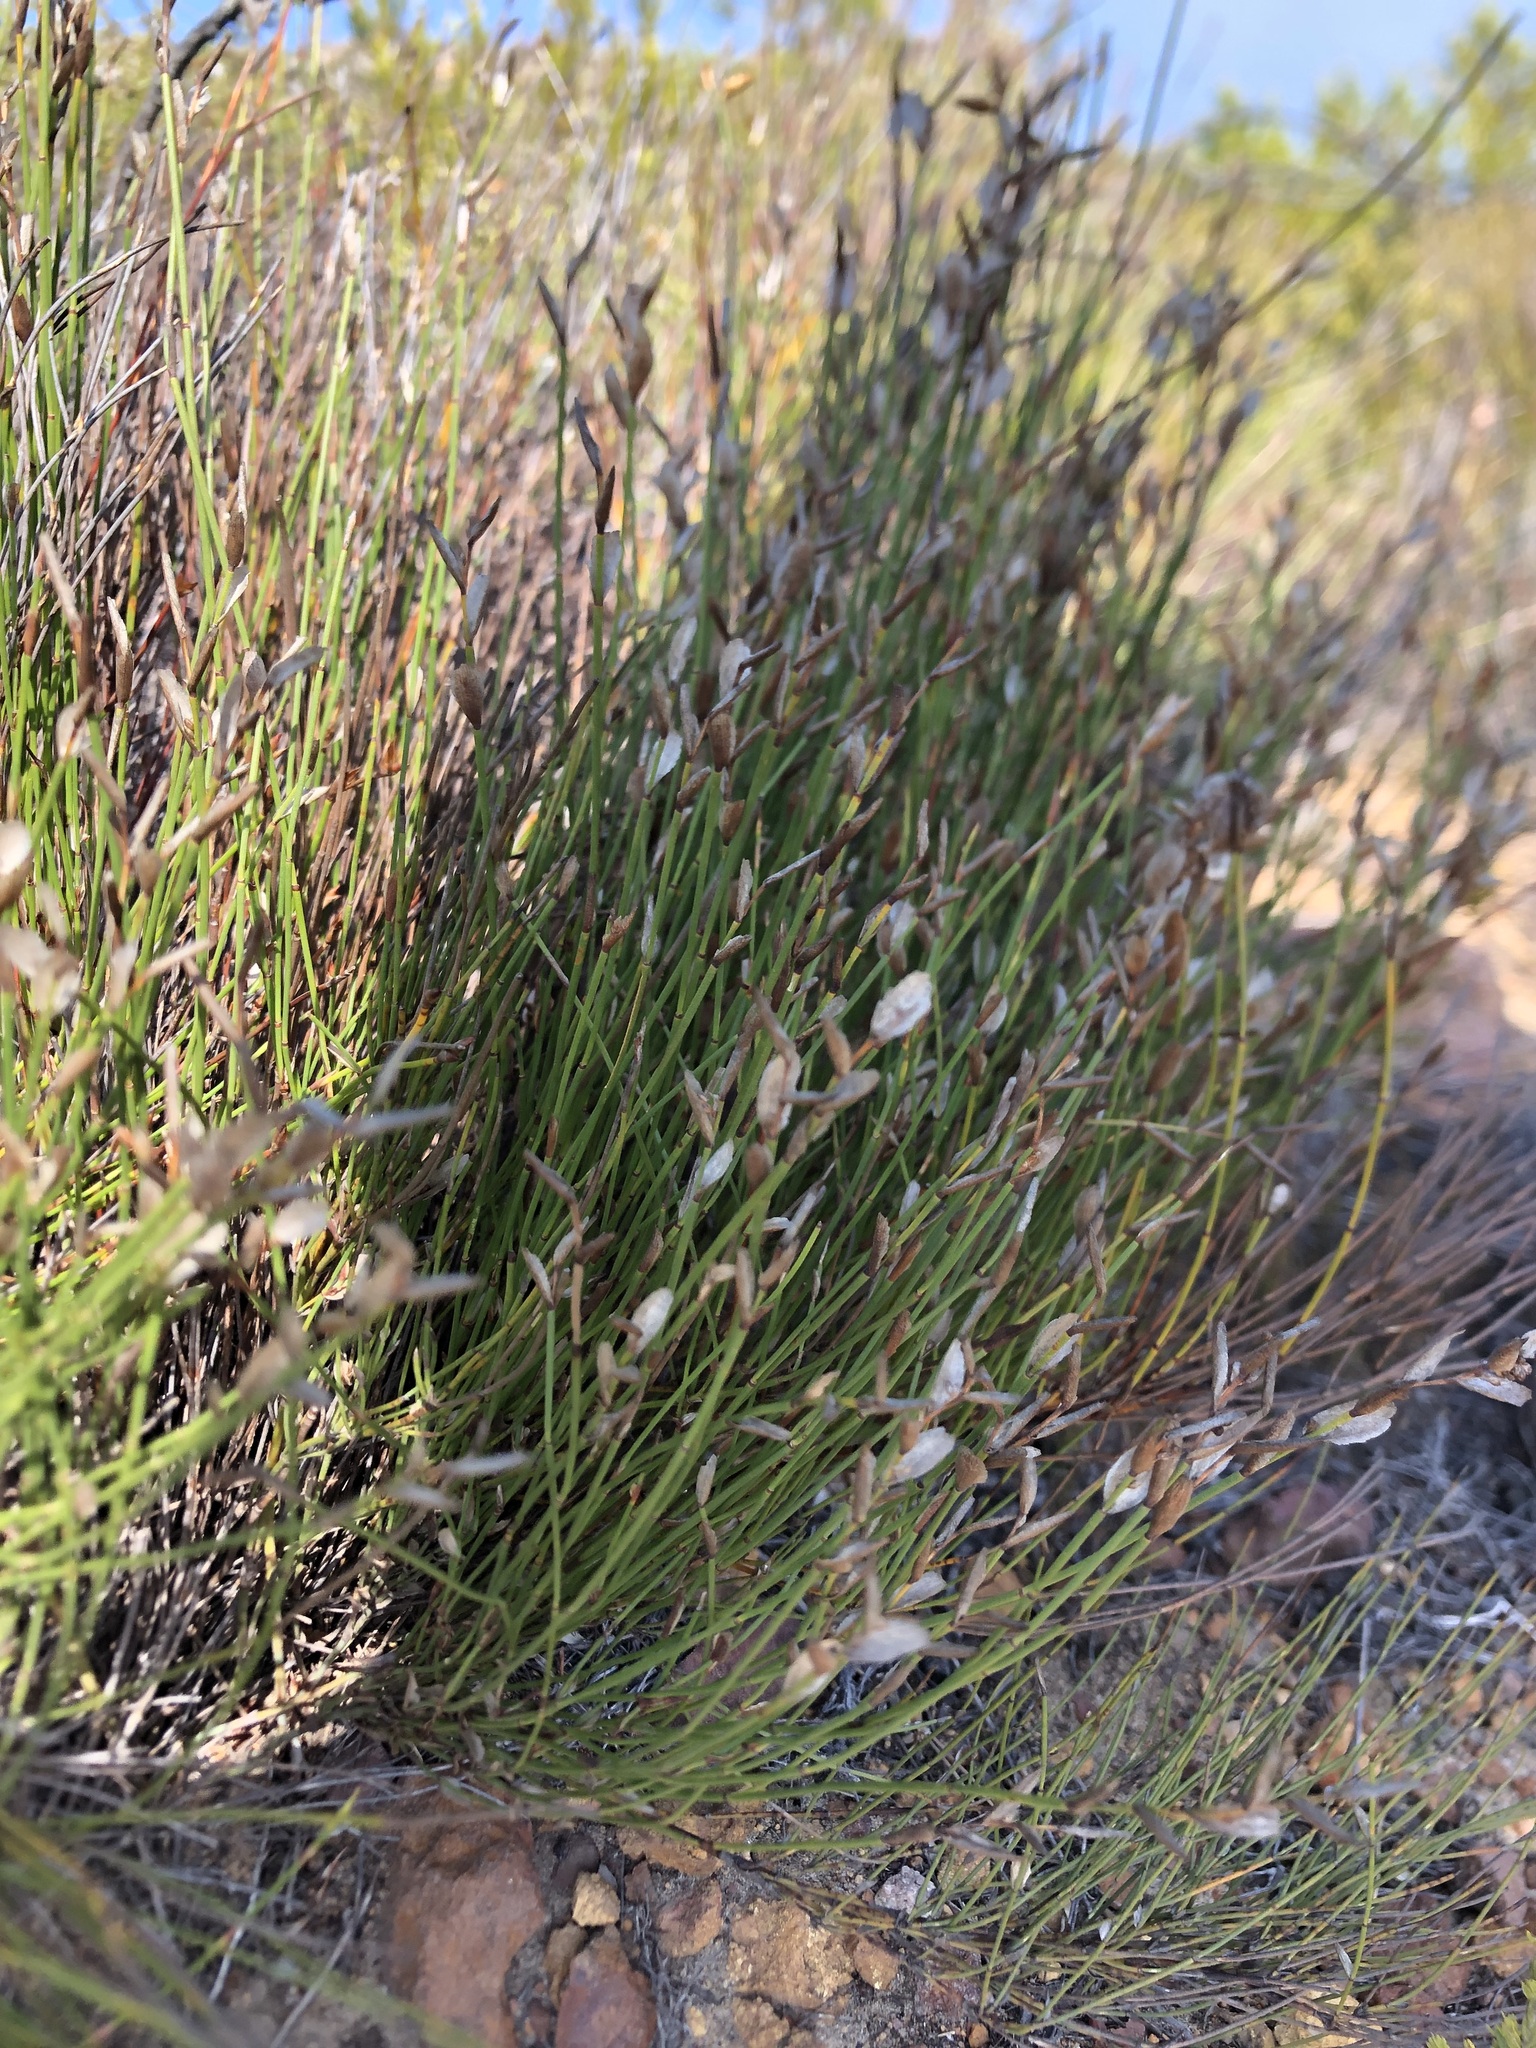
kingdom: Plantae
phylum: Tracheophyta
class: Liliopsida
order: Poales
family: Restionaceae
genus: Elegia
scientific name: Elegia stipularis
